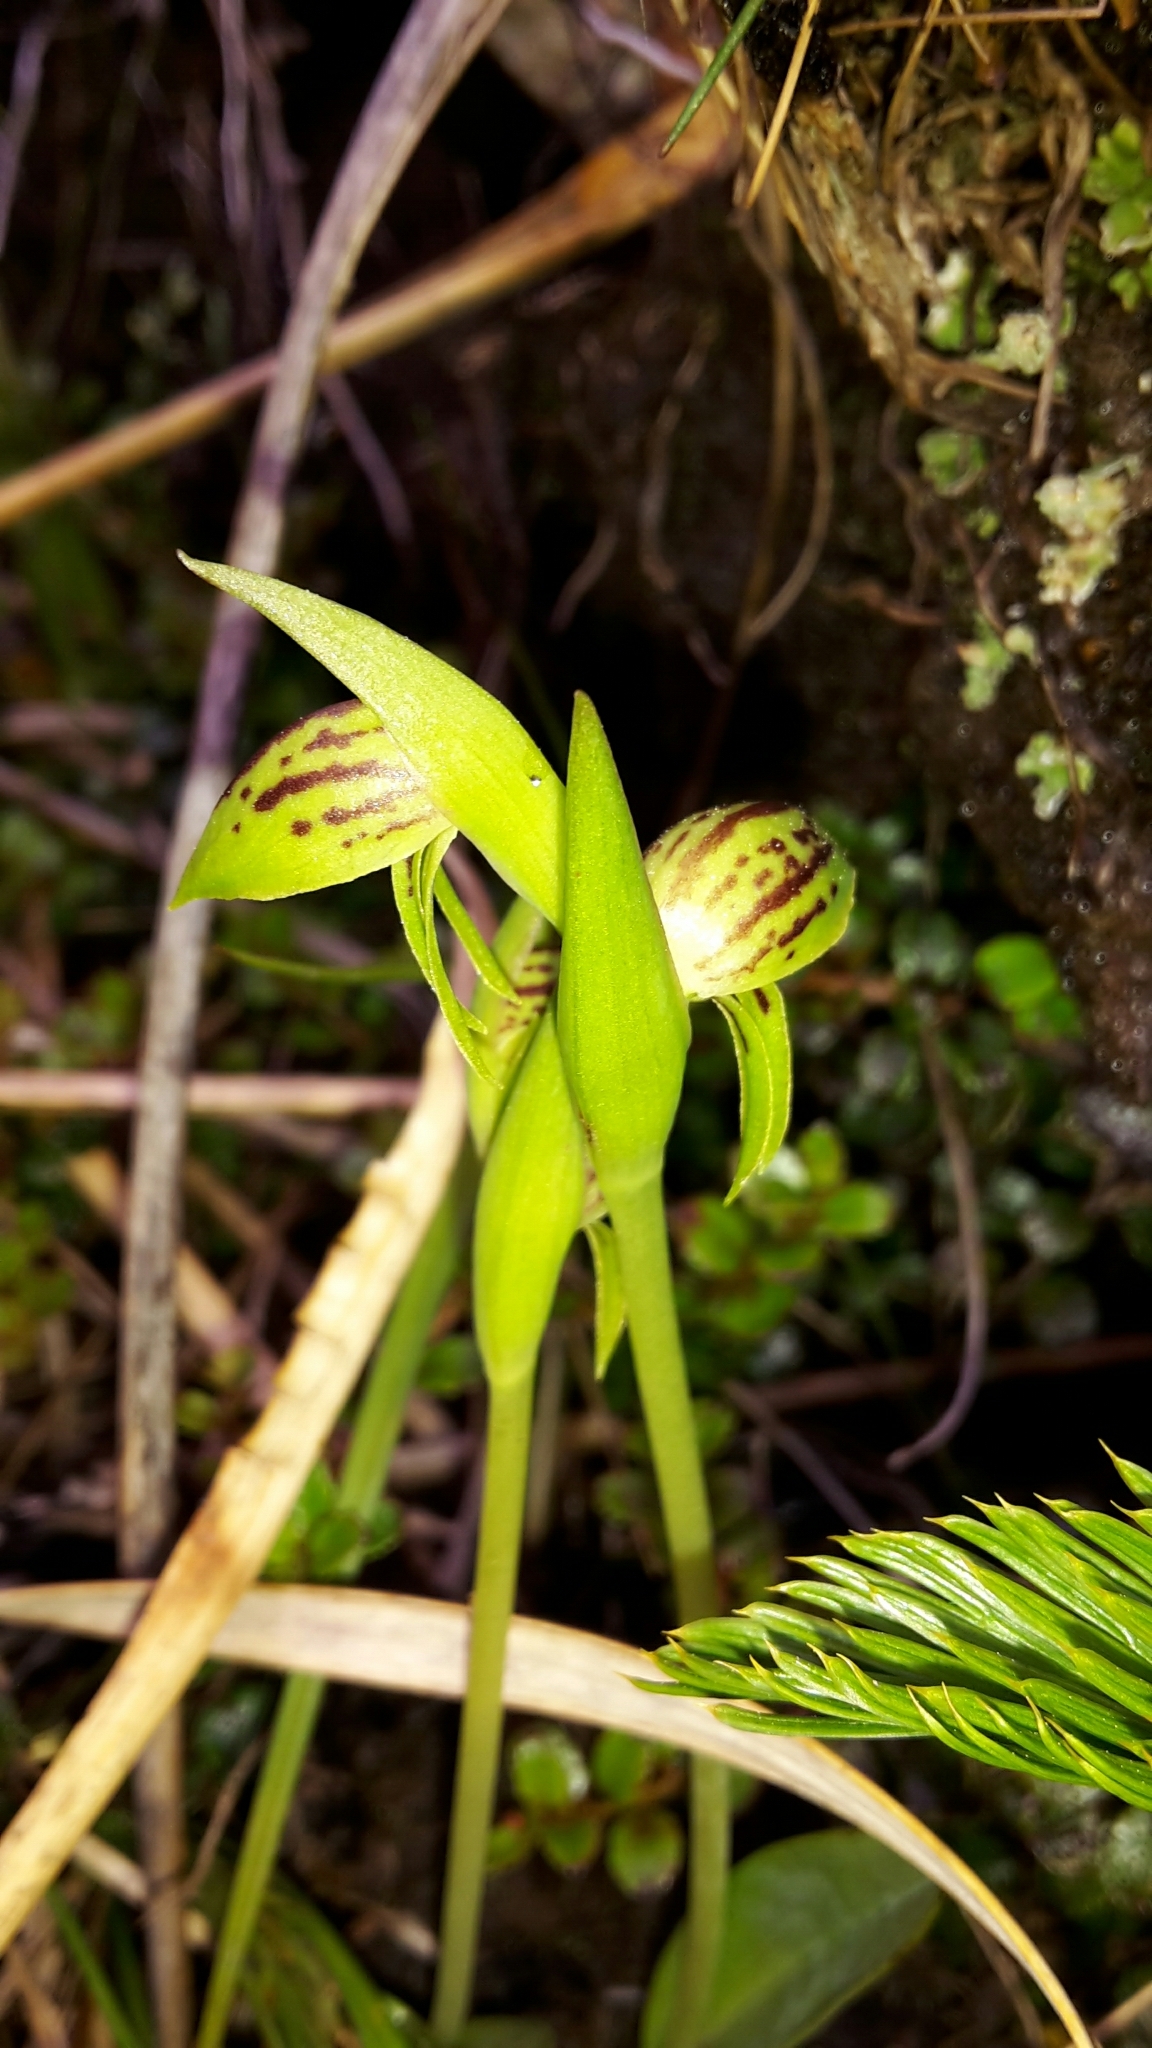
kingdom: Plantae
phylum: Tracheophyta
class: Liliopsida
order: Asparagales
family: Orchidaceae
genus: Waireia
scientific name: Waireia stenopetala
